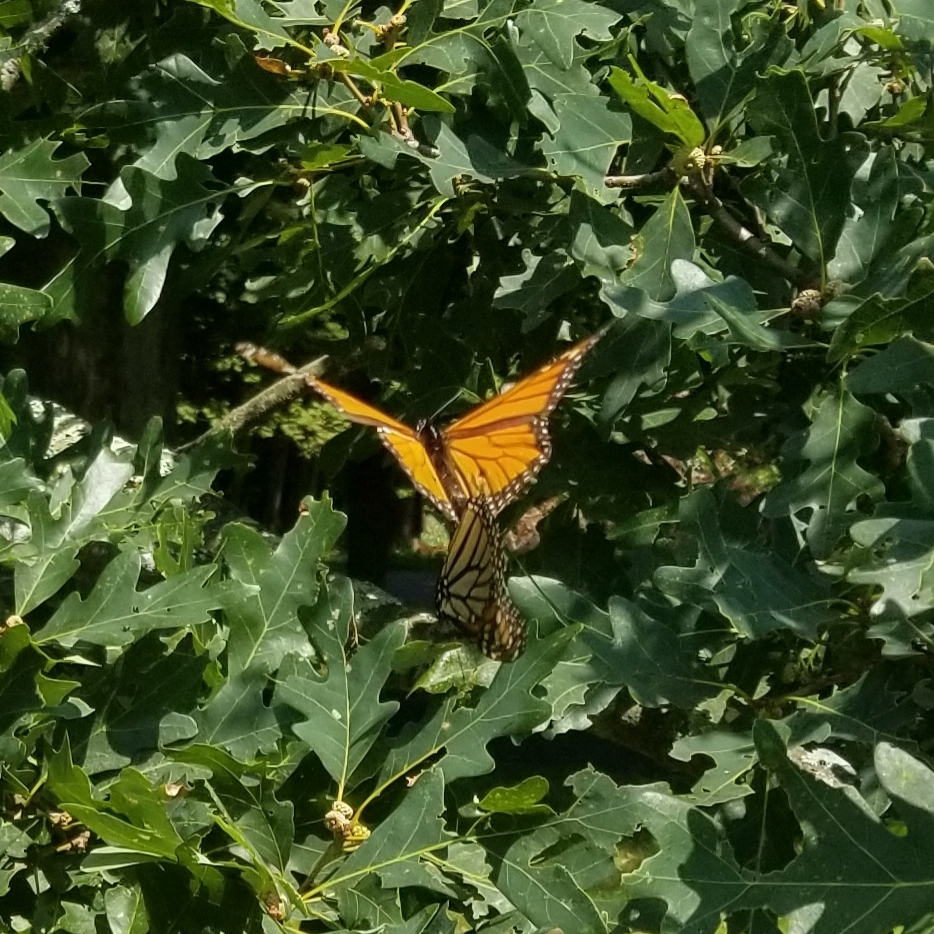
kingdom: Animalia
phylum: Arthropoda
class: Insecta
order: Lepidoptera
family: Nymphalidae
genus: Danaus
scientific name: Danaus plexippus
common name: Monarch
